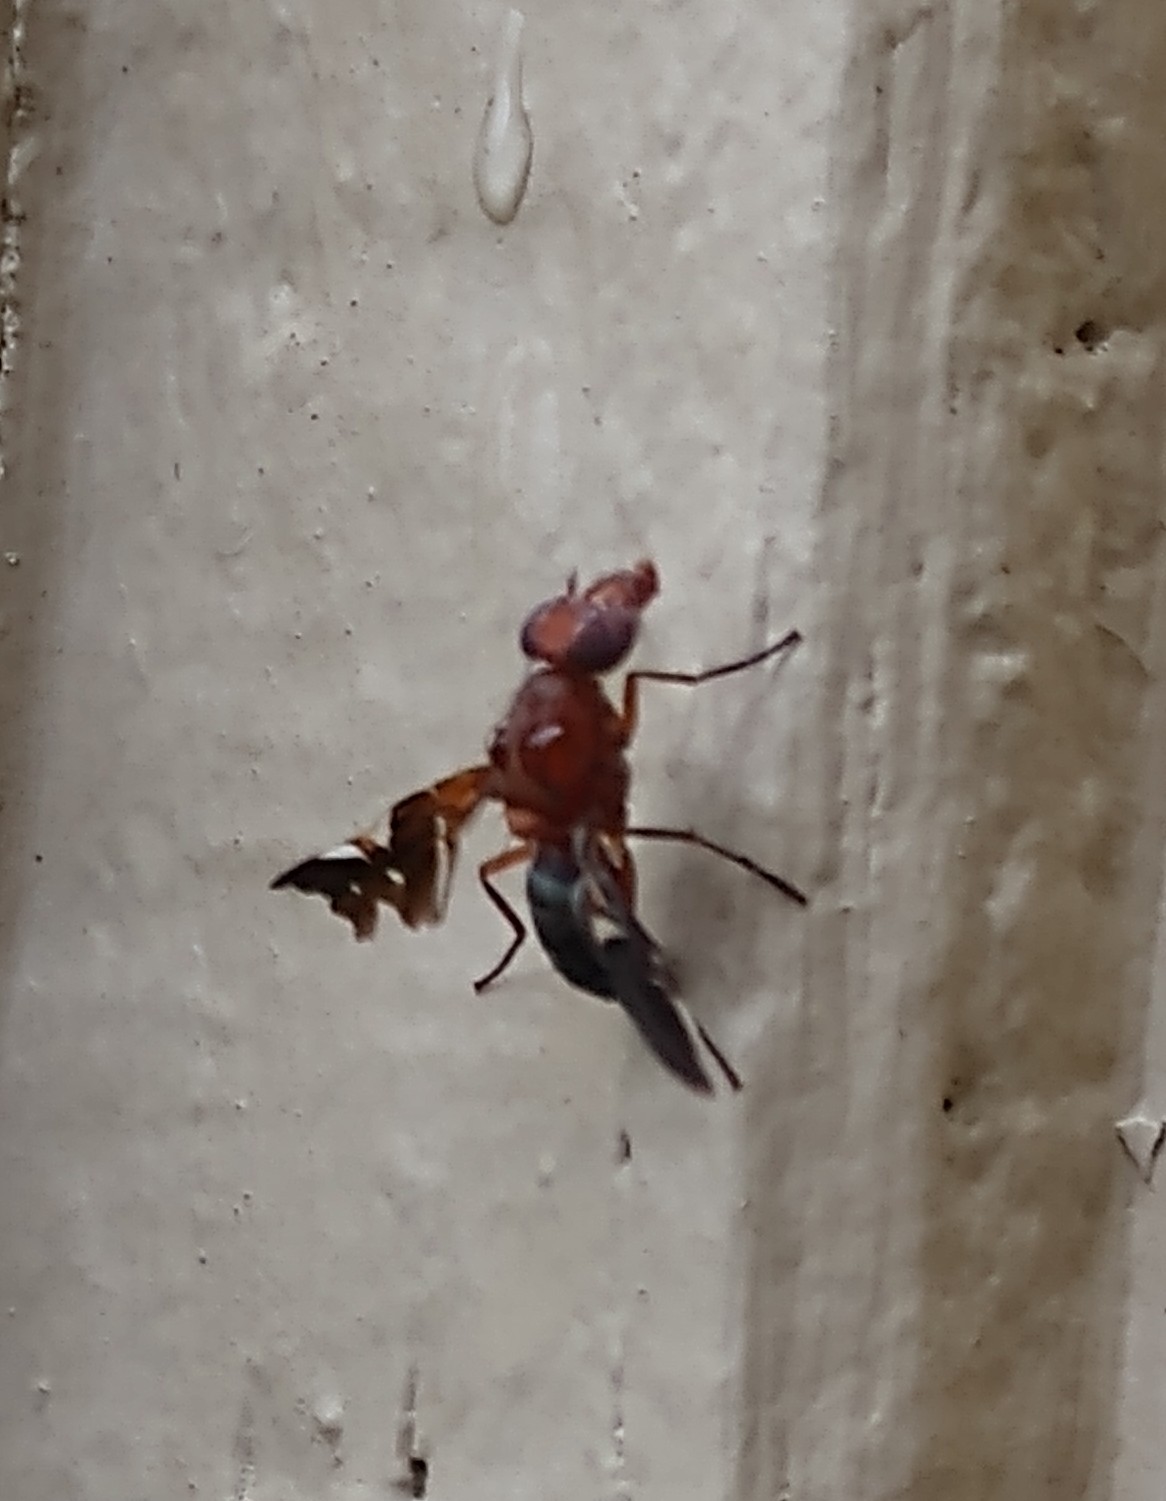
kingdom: Animalia
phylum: Arthropoda
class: Insecta
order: Diptera
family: Ulidiidae
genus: Delphinia
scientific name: Delphinia picta
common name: Common picture-winged fly
